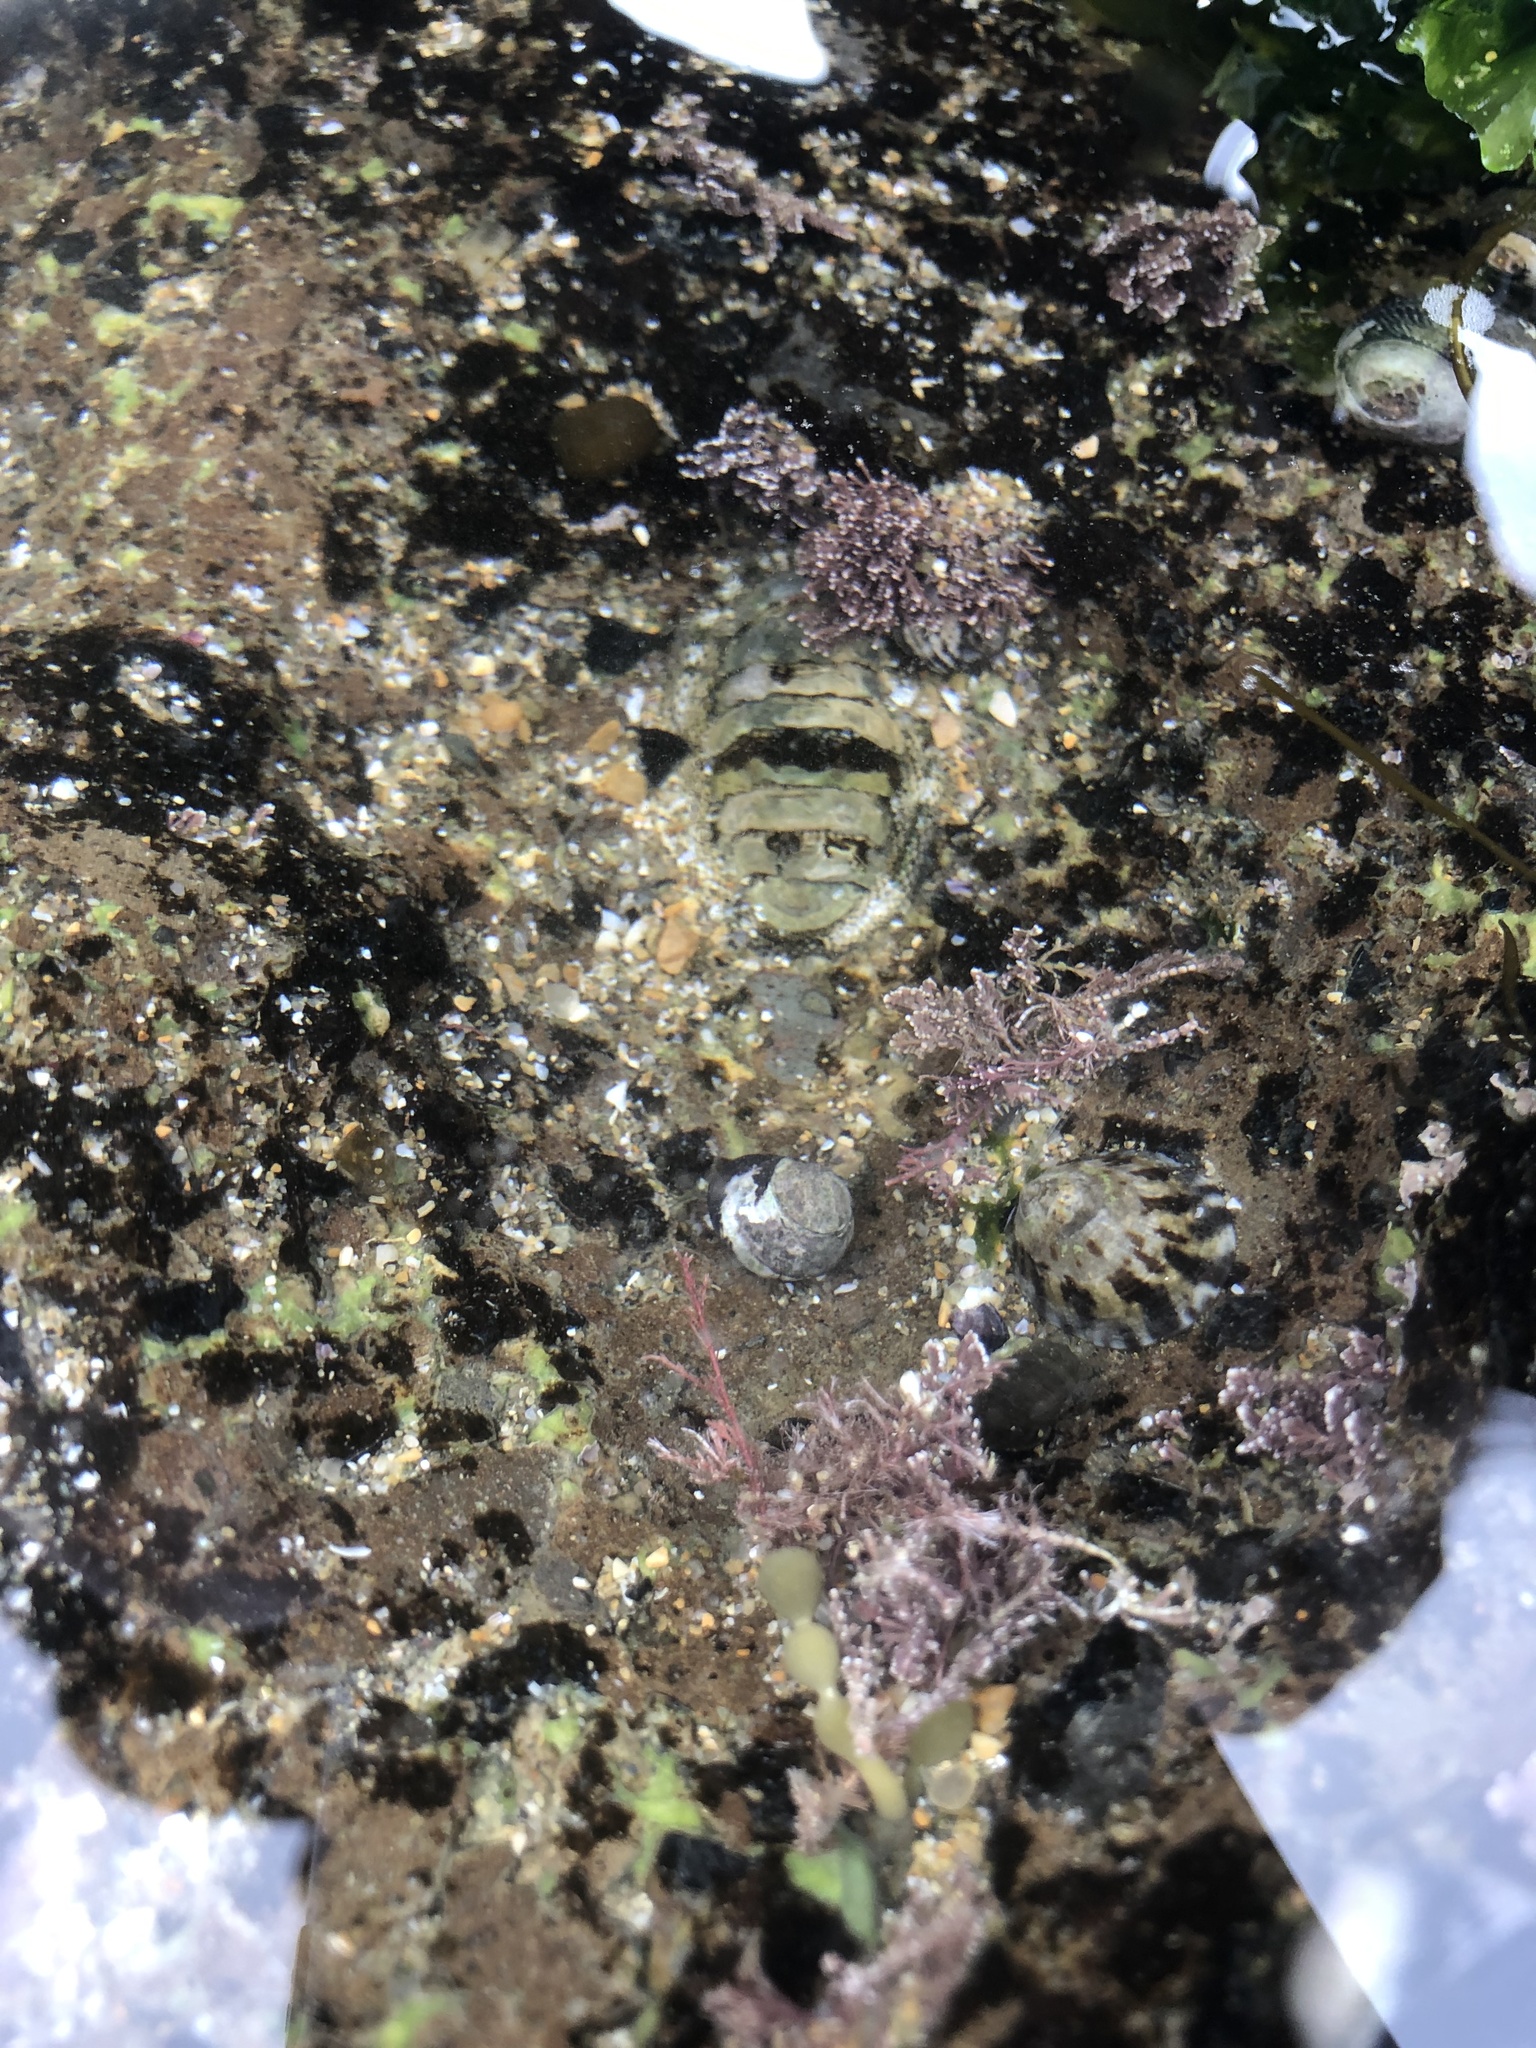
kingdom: Animalia
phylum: Mollusca
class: Polyplacophora
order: Chitonida
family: Chitonidae
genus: Sypharochiton
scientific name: Sypharochiton pelliserpentis
